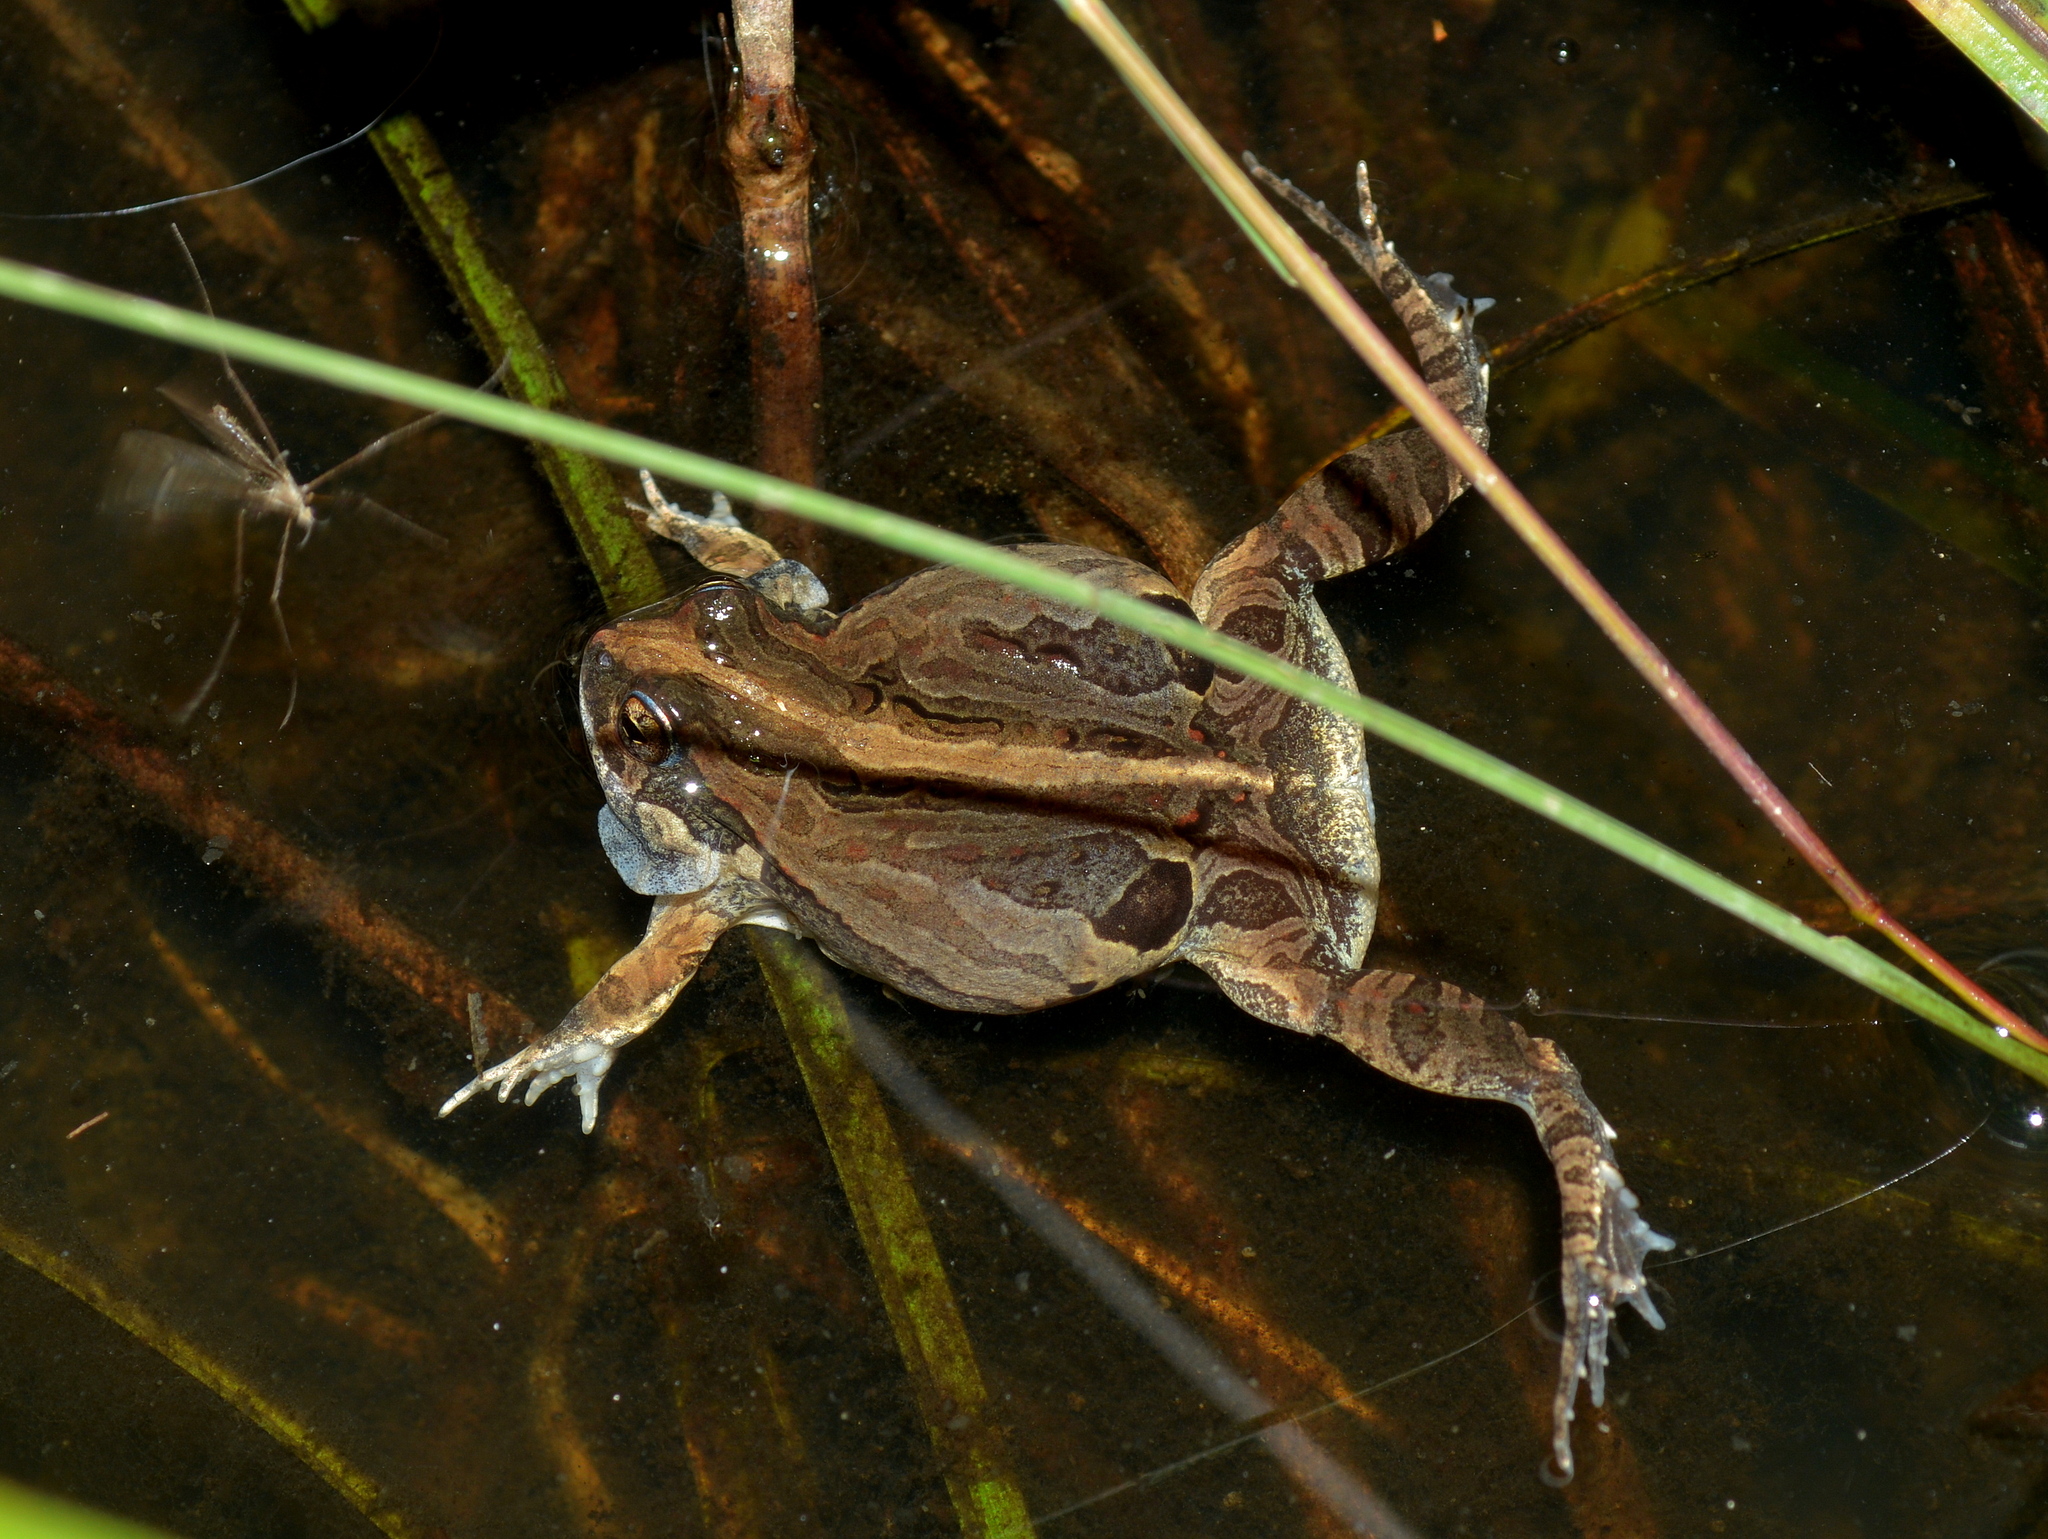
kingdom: Animalia
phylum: Chordata
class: Amphibia
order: Anura
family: Leptodactylidae
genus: Physalaemus
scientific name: Physalaemus biligonigerus
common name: Weeping frog
